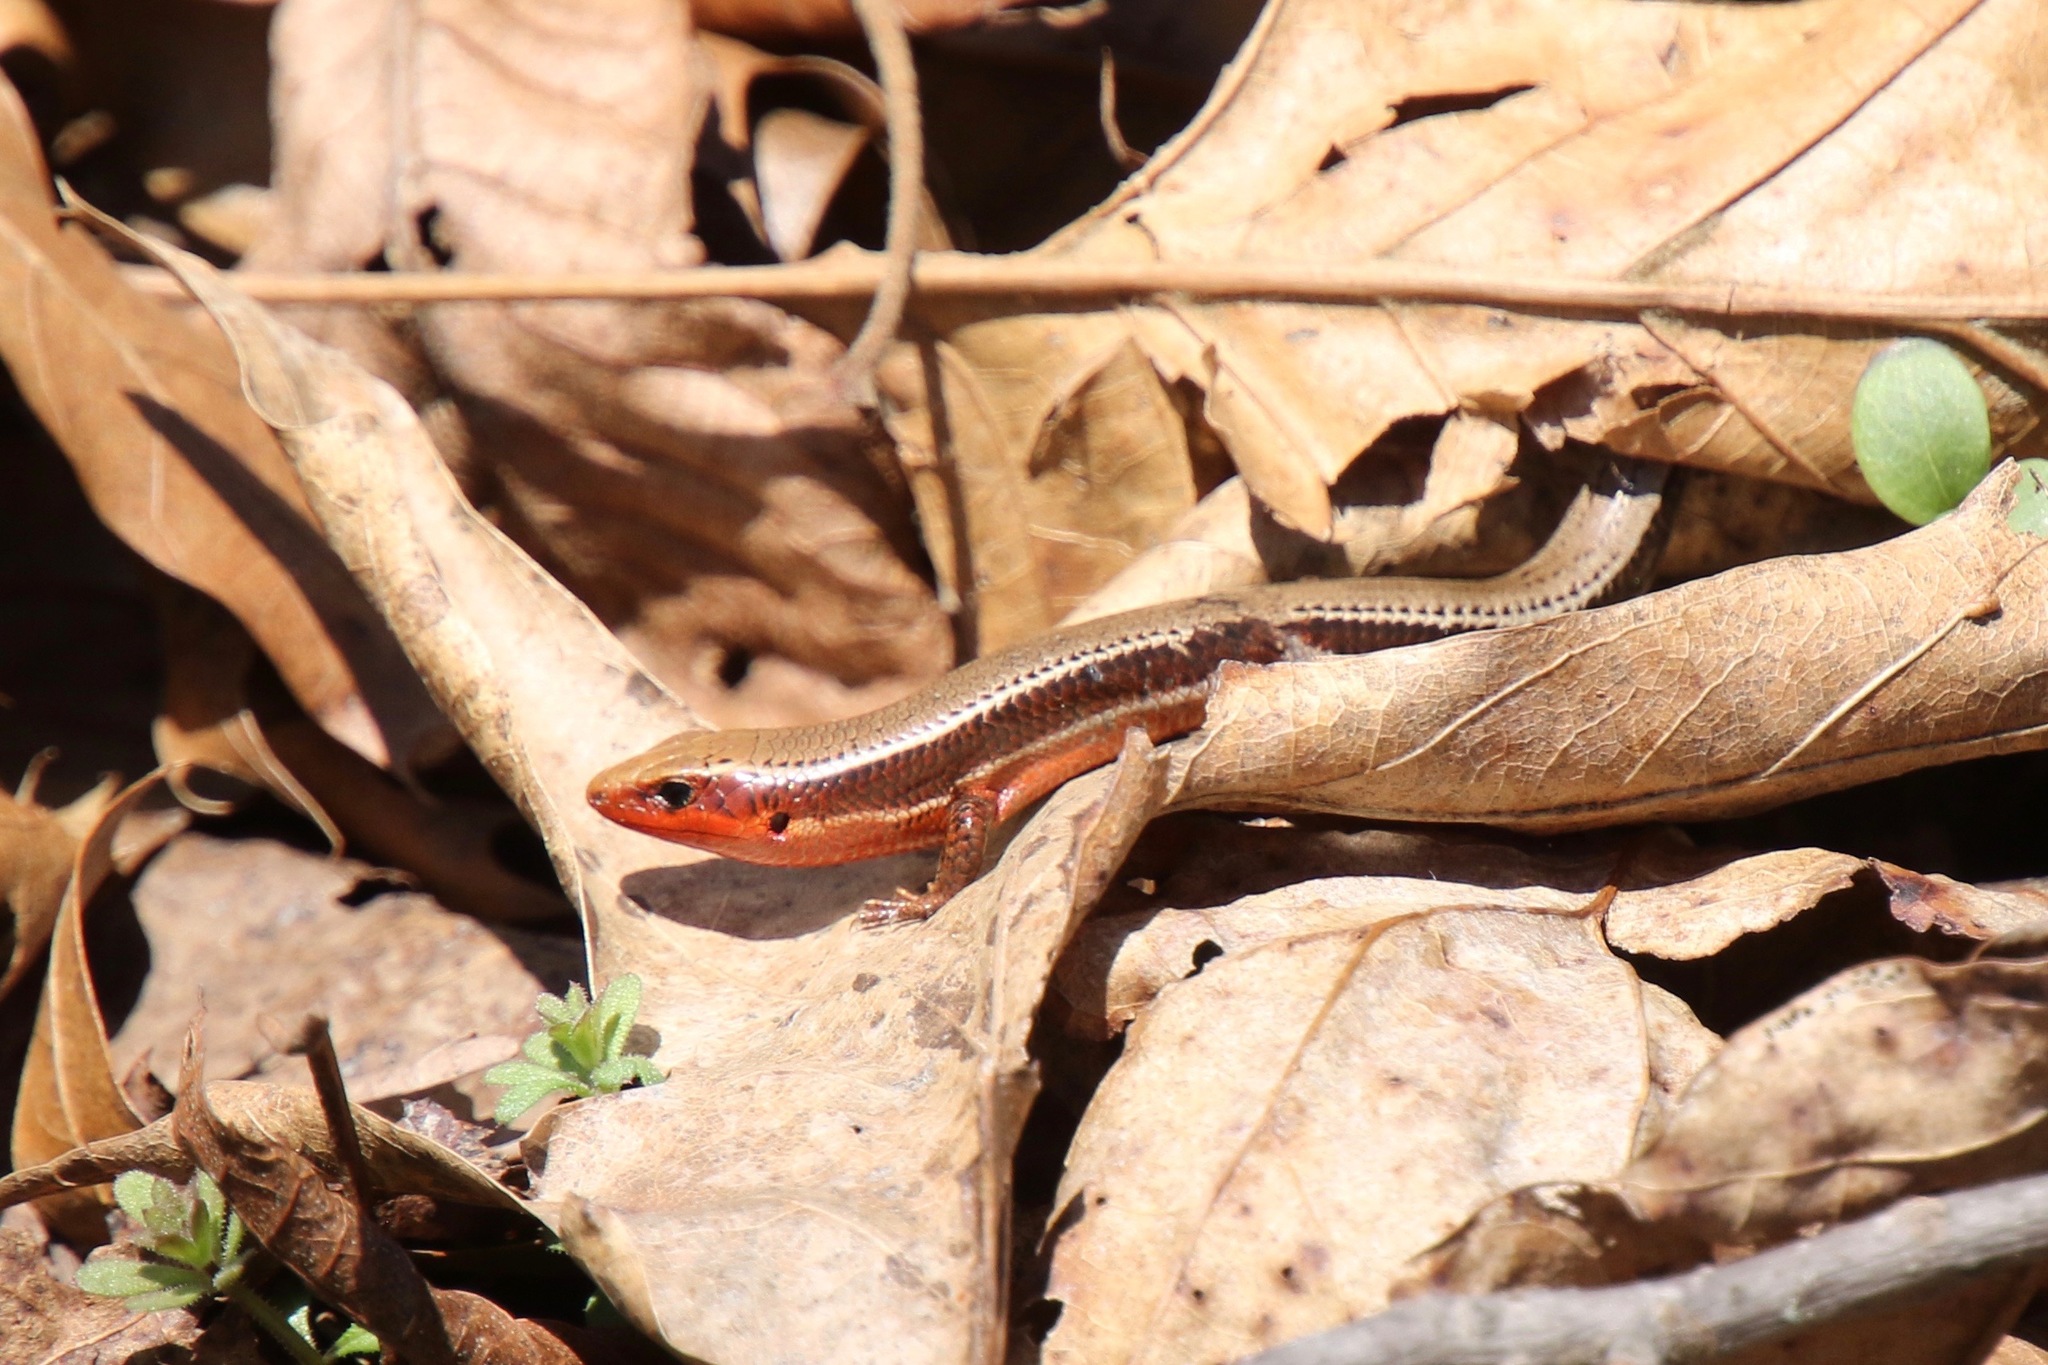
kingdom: Animalia
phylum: Chordata
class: Squamata
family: Scincidae
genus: Plestiodon
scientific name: Plestiodon anthracinus
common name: Coal skink
